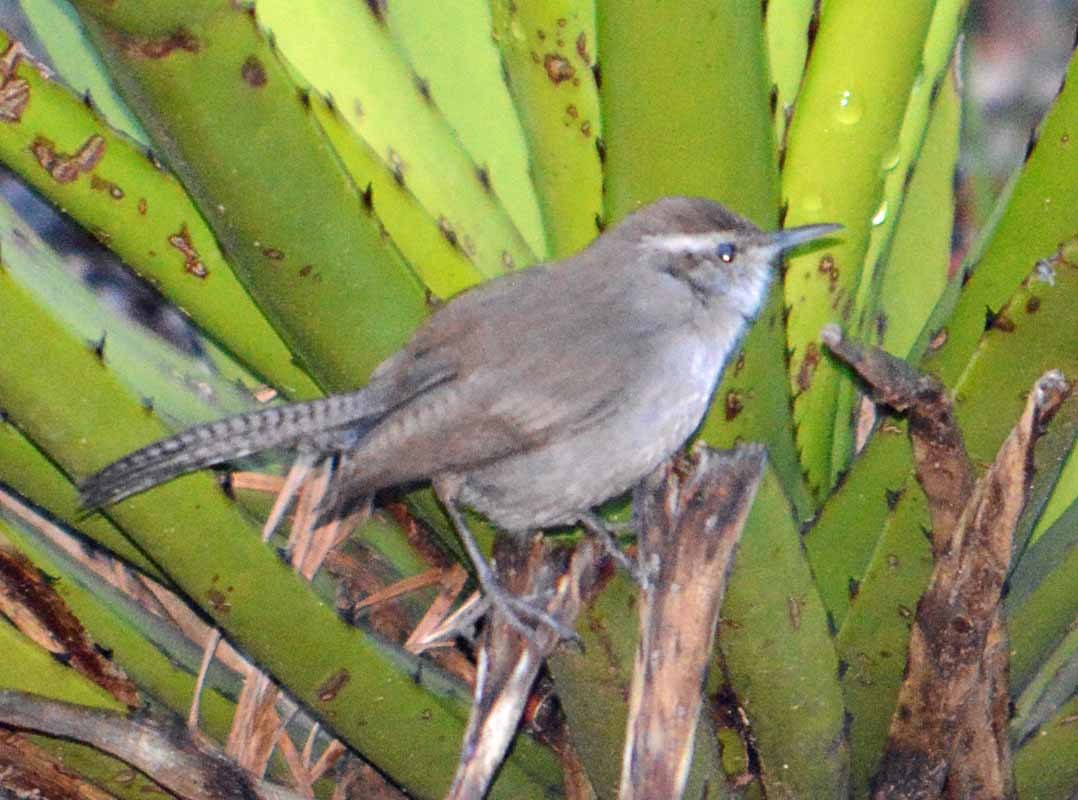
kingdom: Animalia
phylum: Chordata
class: Aves
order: Passeriformes
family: Troglodytidae
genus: Thryomanes
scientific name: Thryomanes bewickii
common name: Bewick's wren
